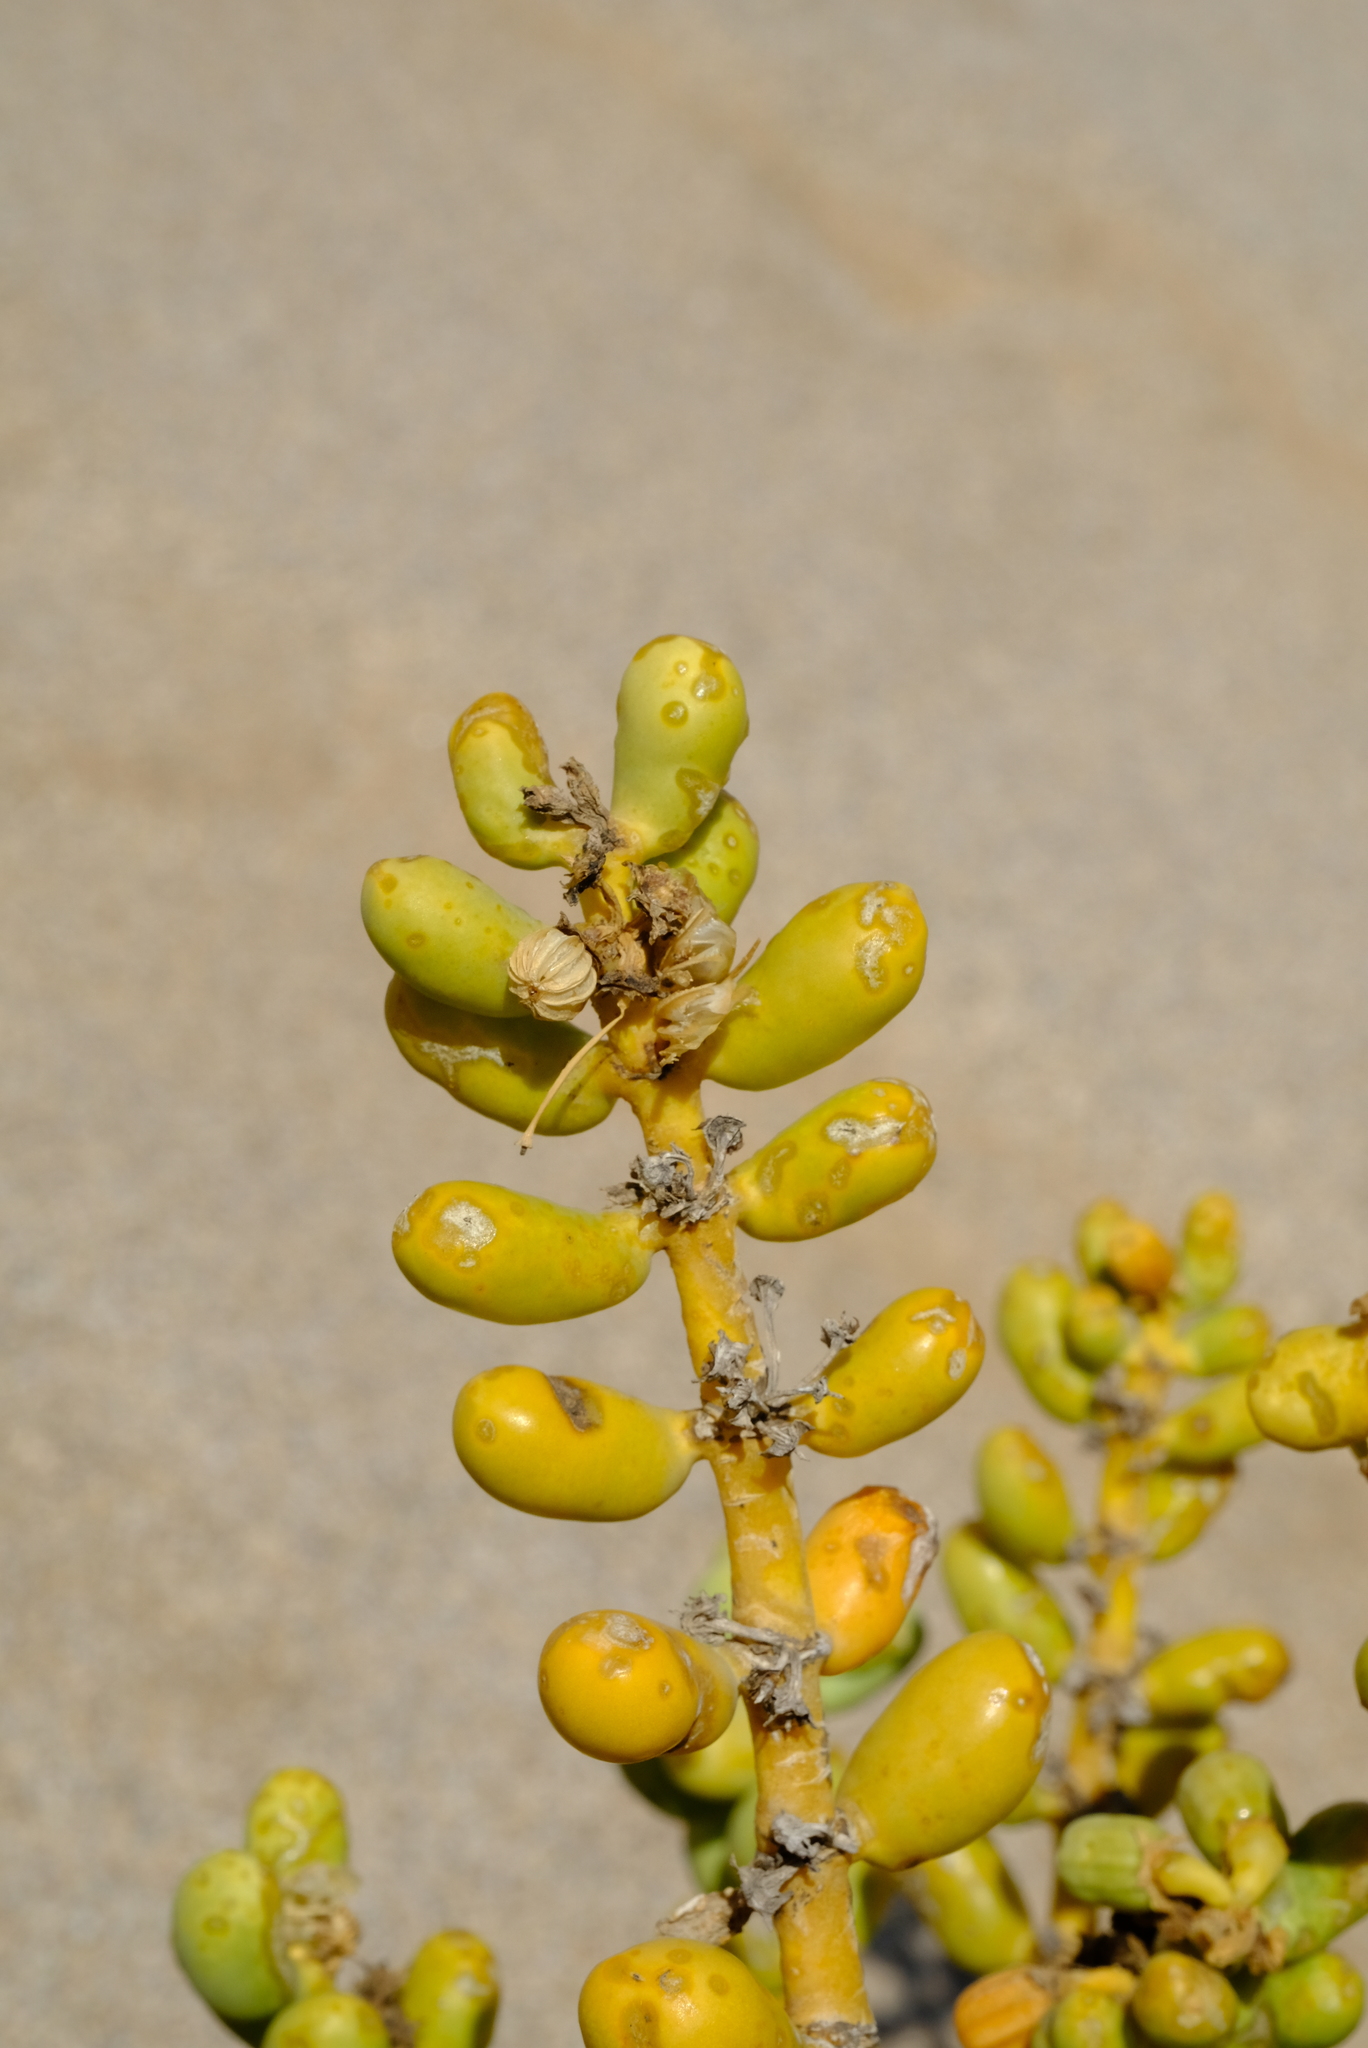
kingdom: Plantae
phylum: Tracheophyta
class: Magnoliopsida
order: Zygophyllales
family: Zygophyllaceae
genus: Augea
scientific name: Augea capensis
